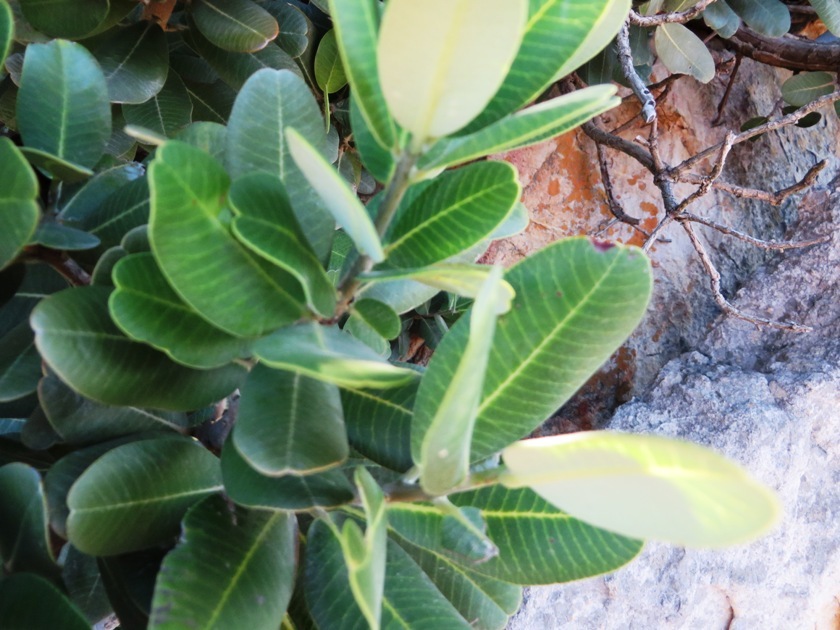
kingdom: Plantae
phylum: Tracheophyta
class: Magnoliopsida
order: Sapindales
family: Anacardiaceae
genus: Heeria
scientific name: Heeria argentea
